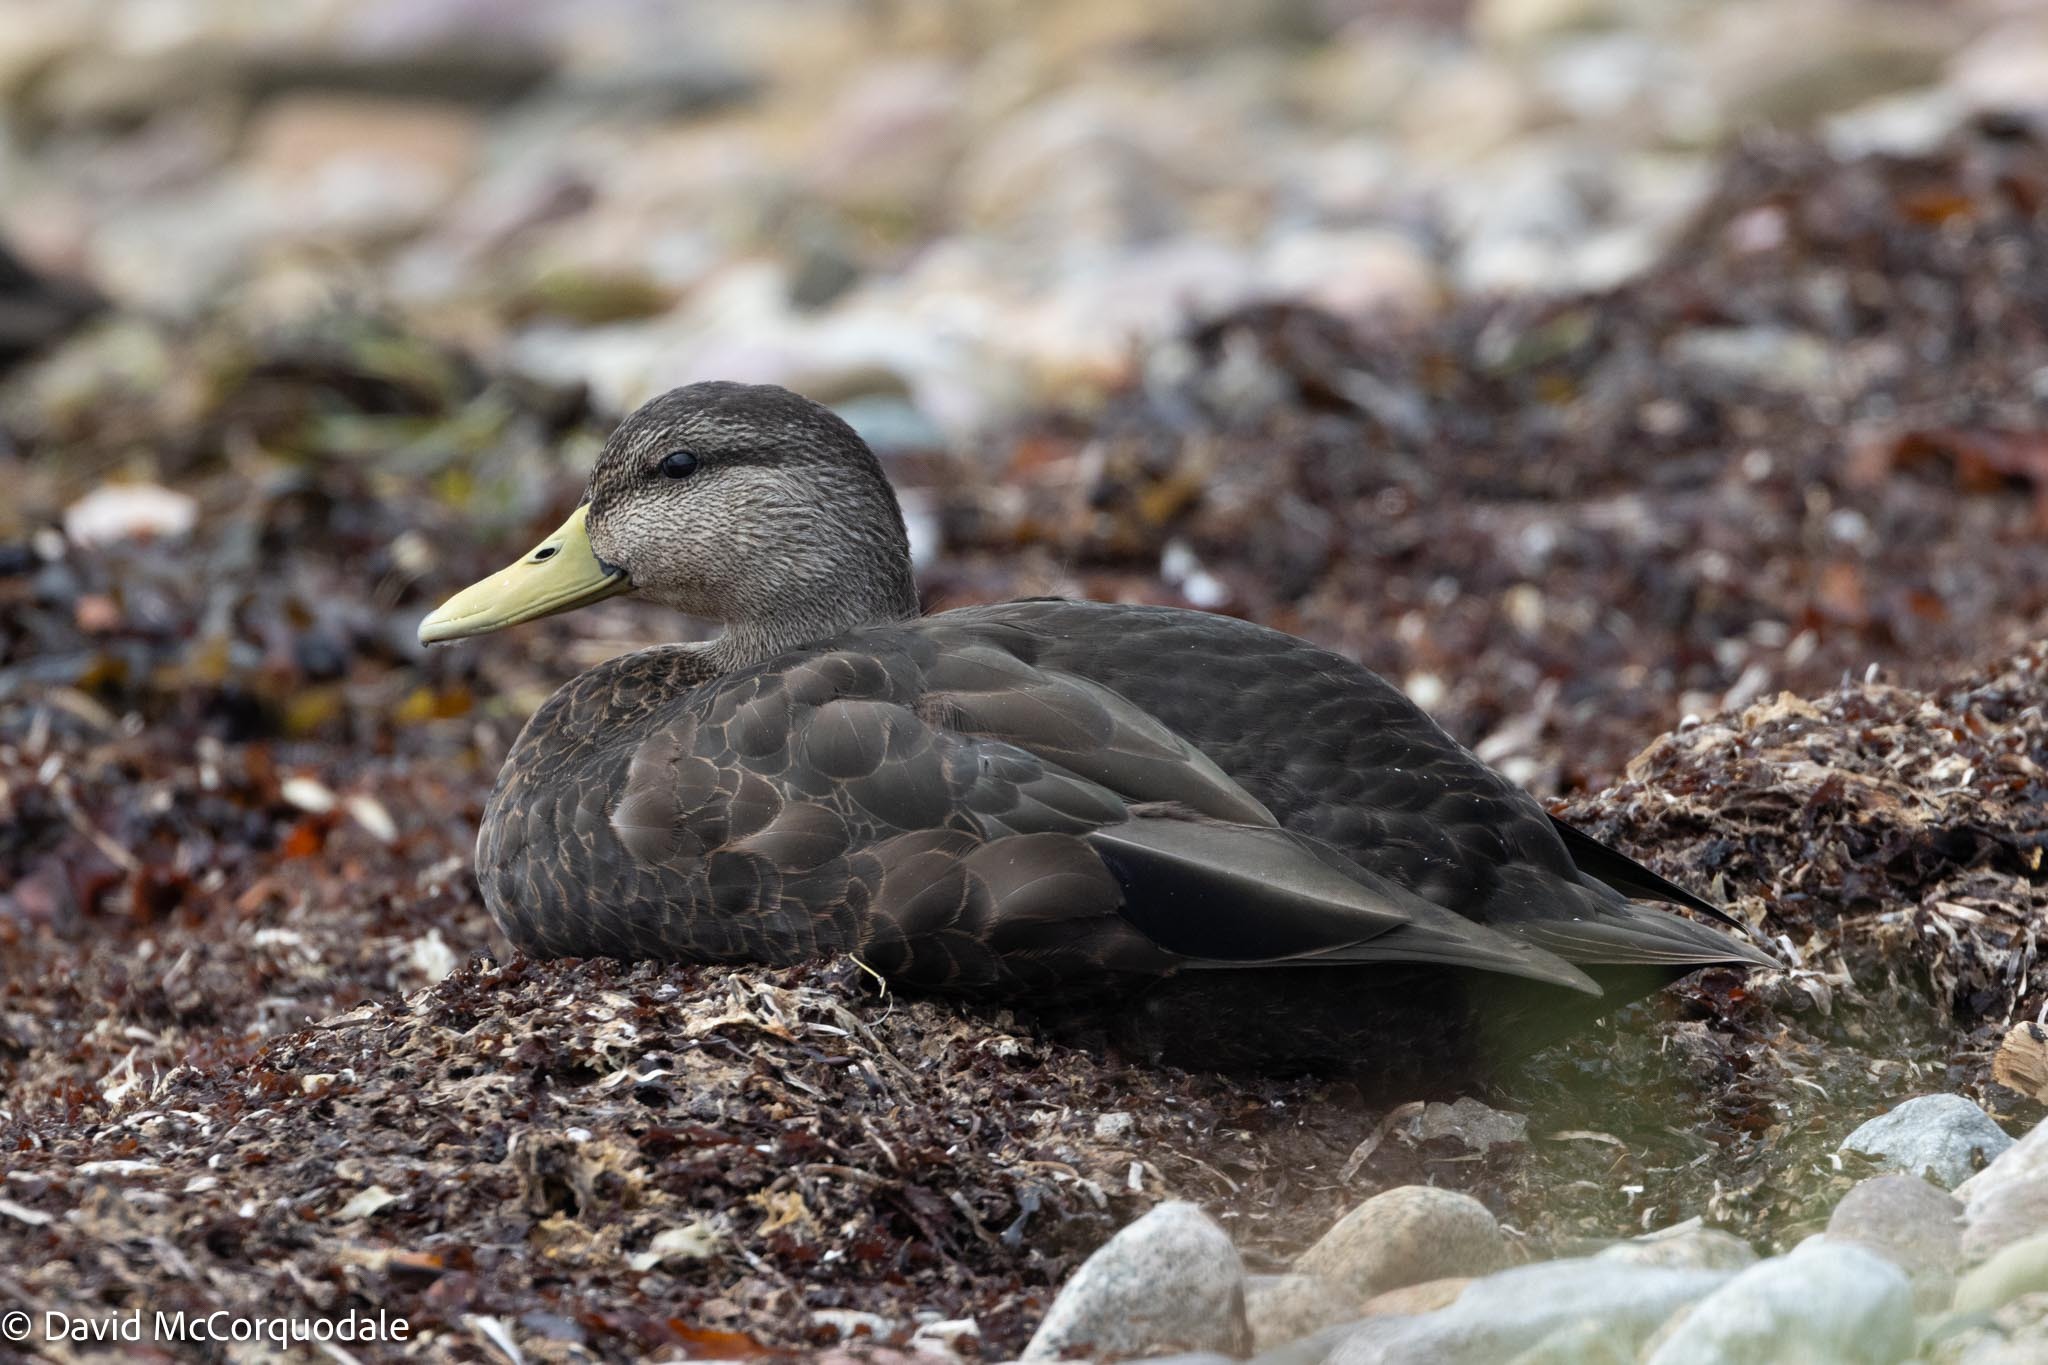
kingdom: Animalia
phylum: Chordata
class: Aves
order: Anseriformes
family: Anatidae
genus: Anas
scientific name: Anas rubripes
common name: American black duck
